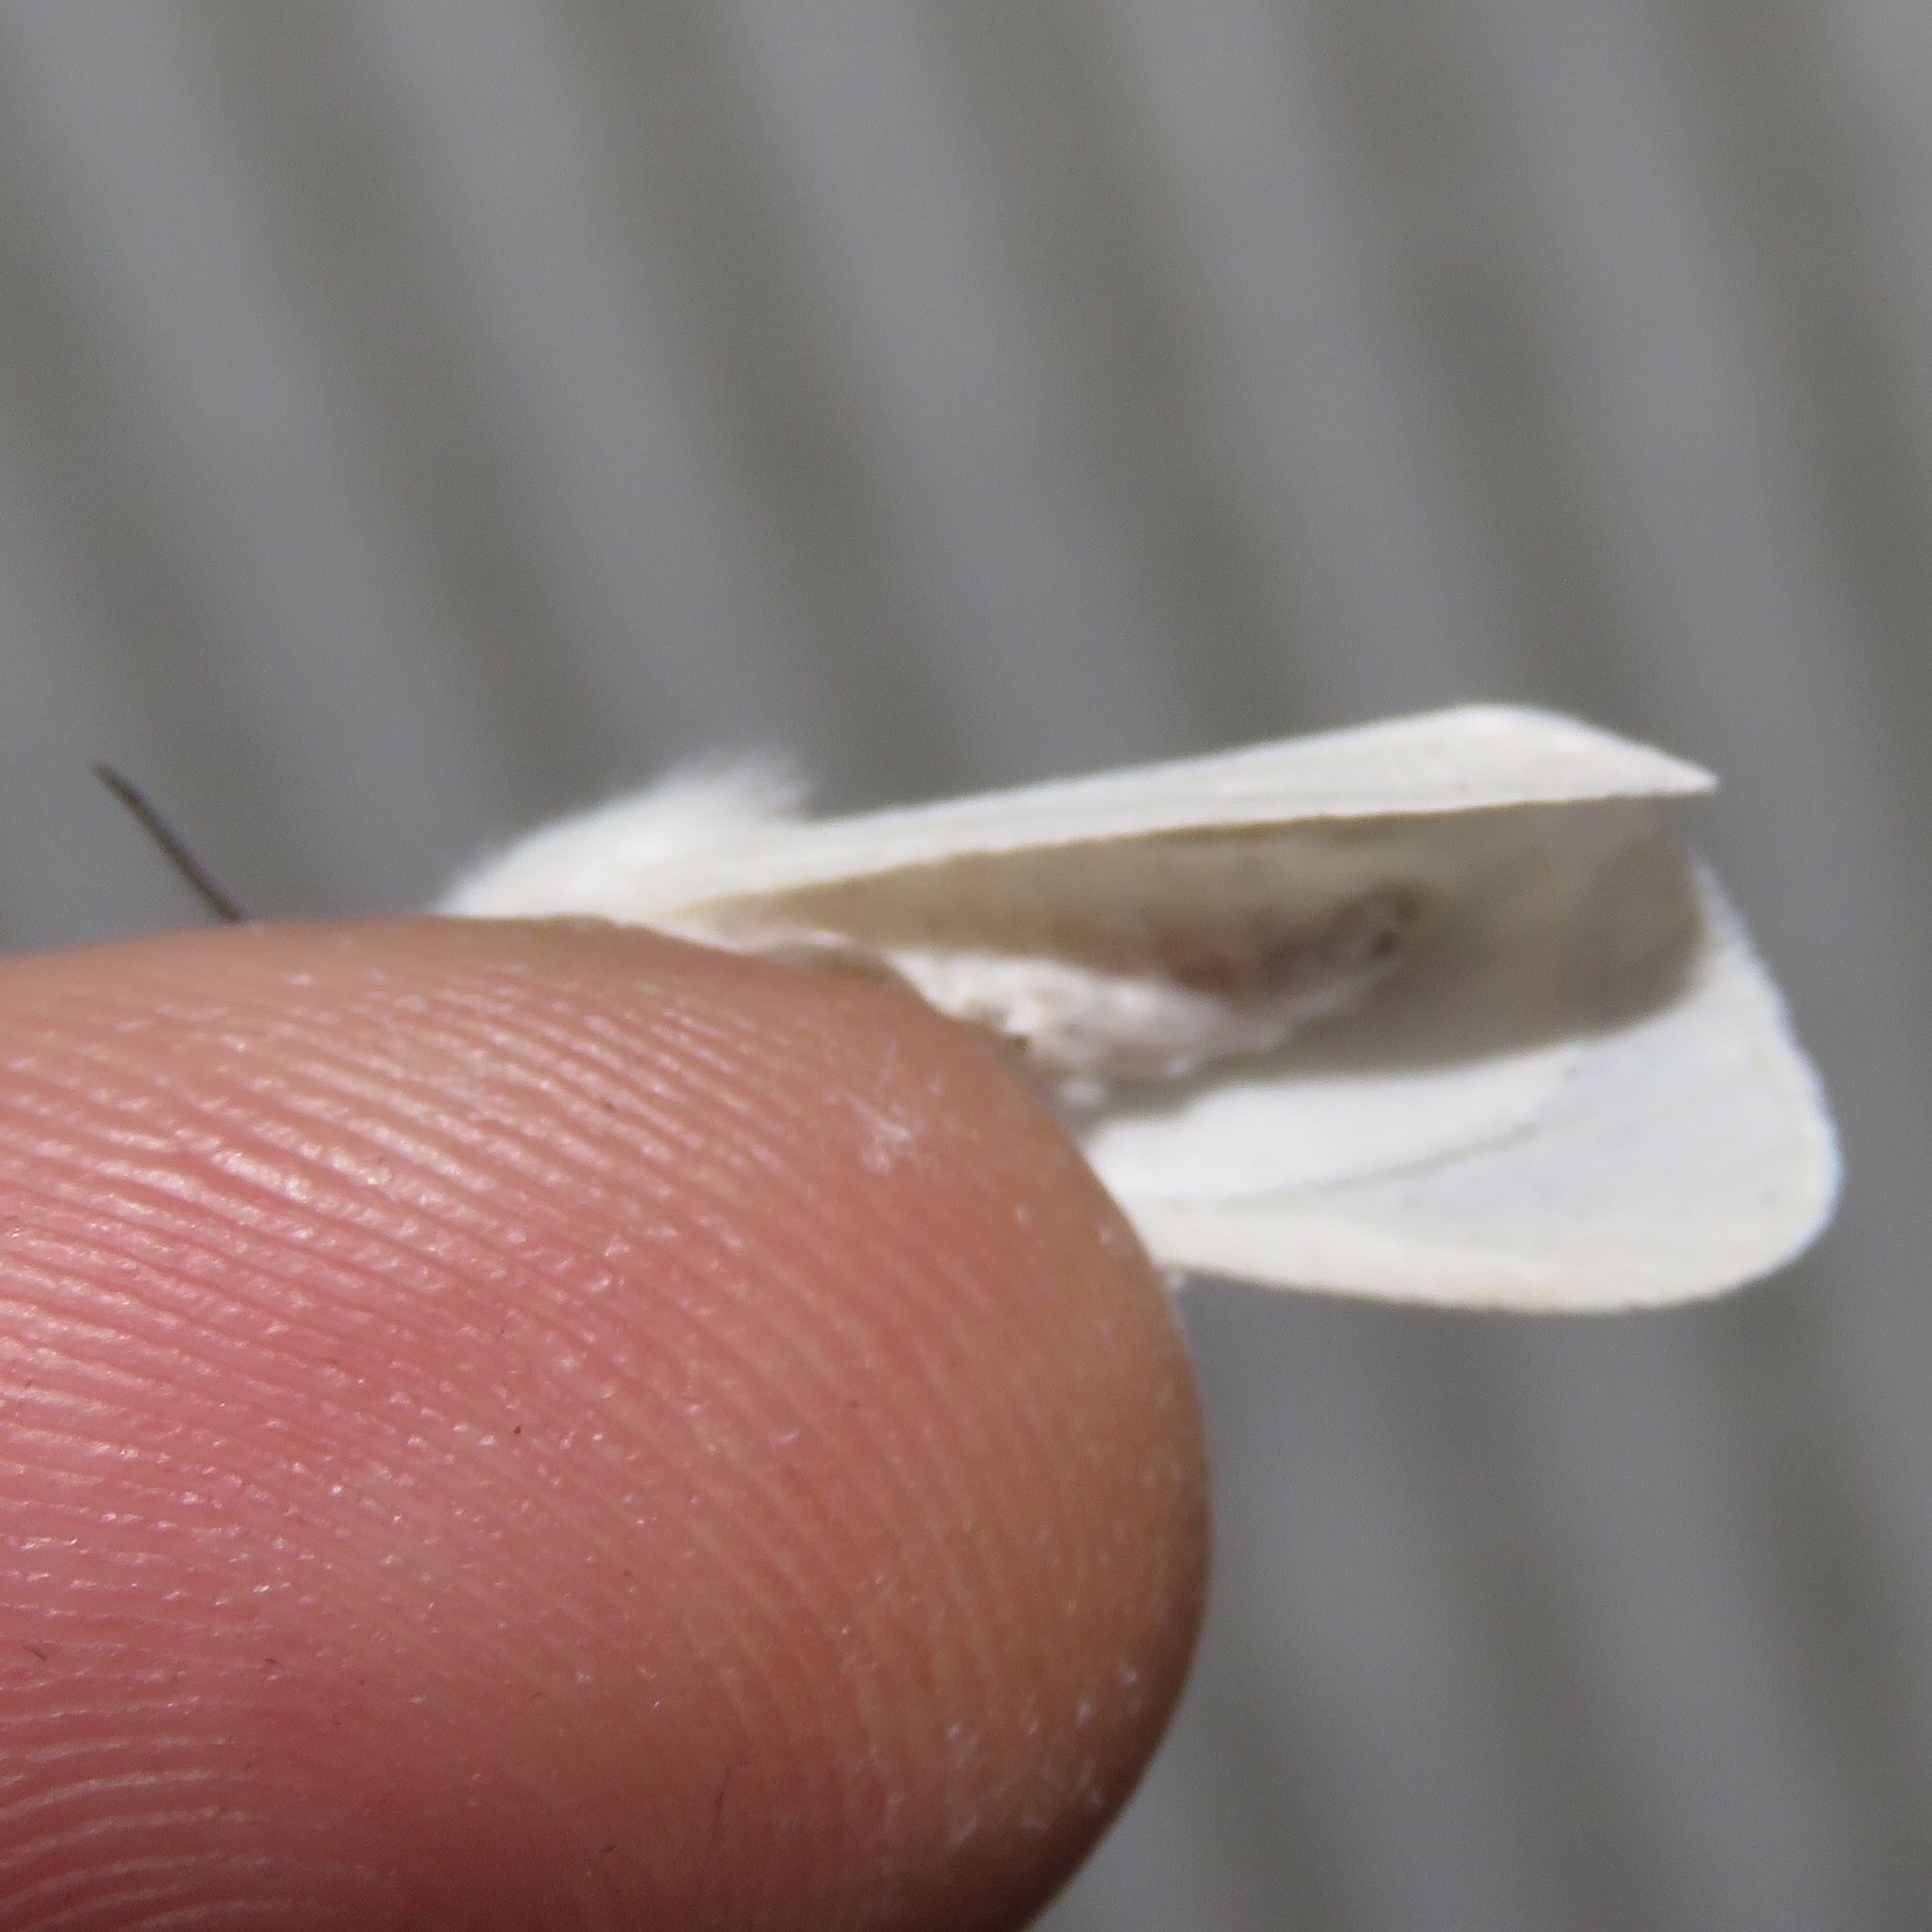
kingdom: Animalia
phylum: Arthropoda
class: Insecta
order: Lepidoptera
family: Erebidae
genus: Hyphantria
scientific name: Hyphantria cunea
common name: American white moth
